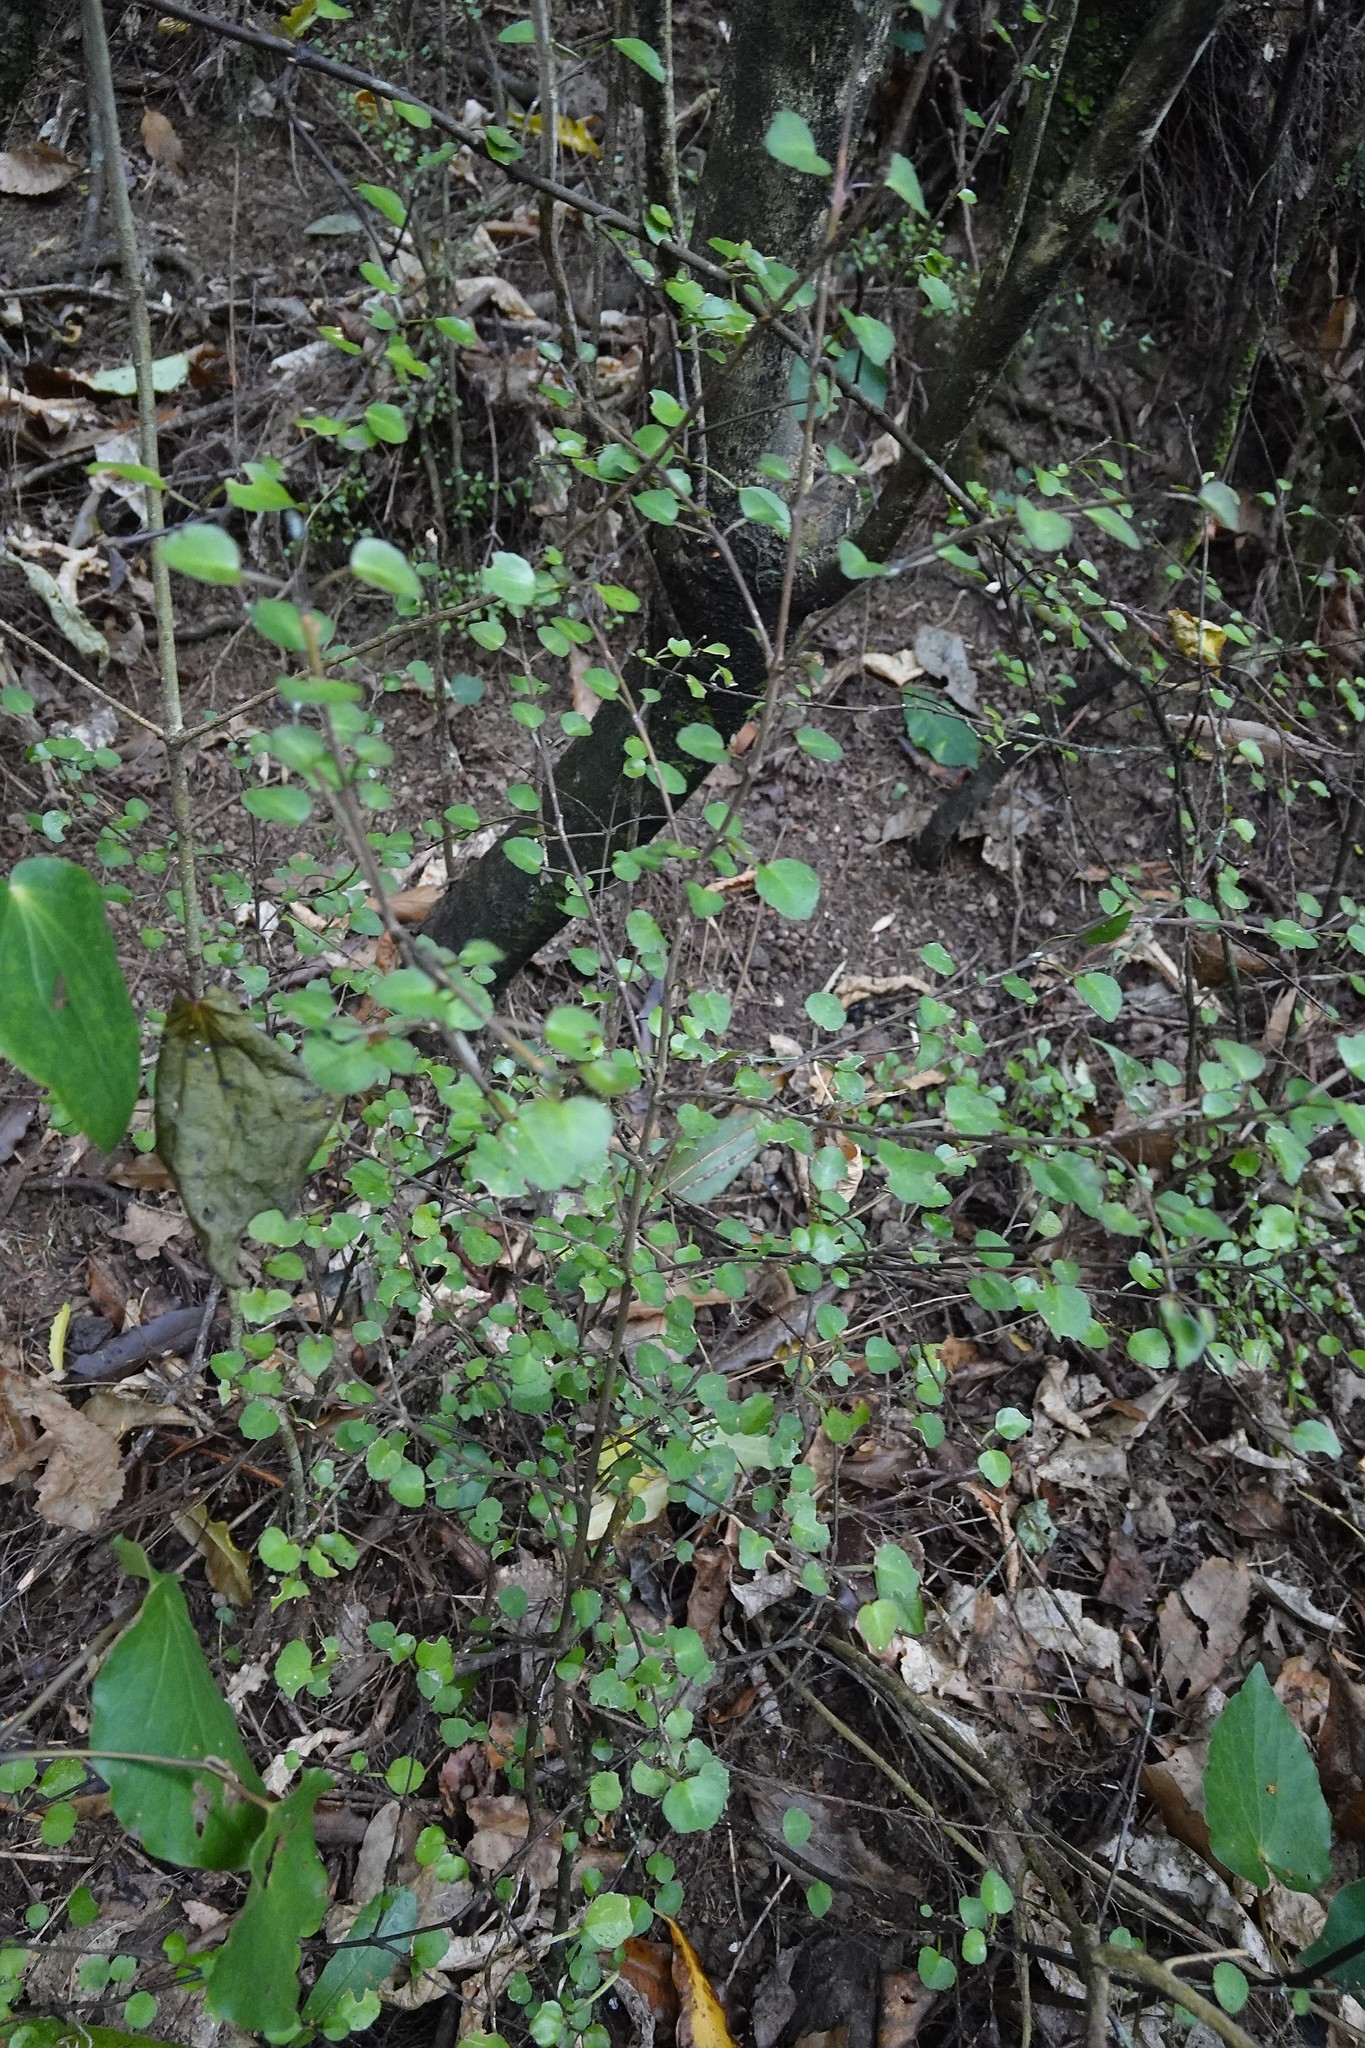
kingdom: Plantae
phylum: Tracheophyta
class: Magnoliopsida
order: Sapindales
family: Rutaceae
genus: Melicope
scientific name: Melicope simplex
